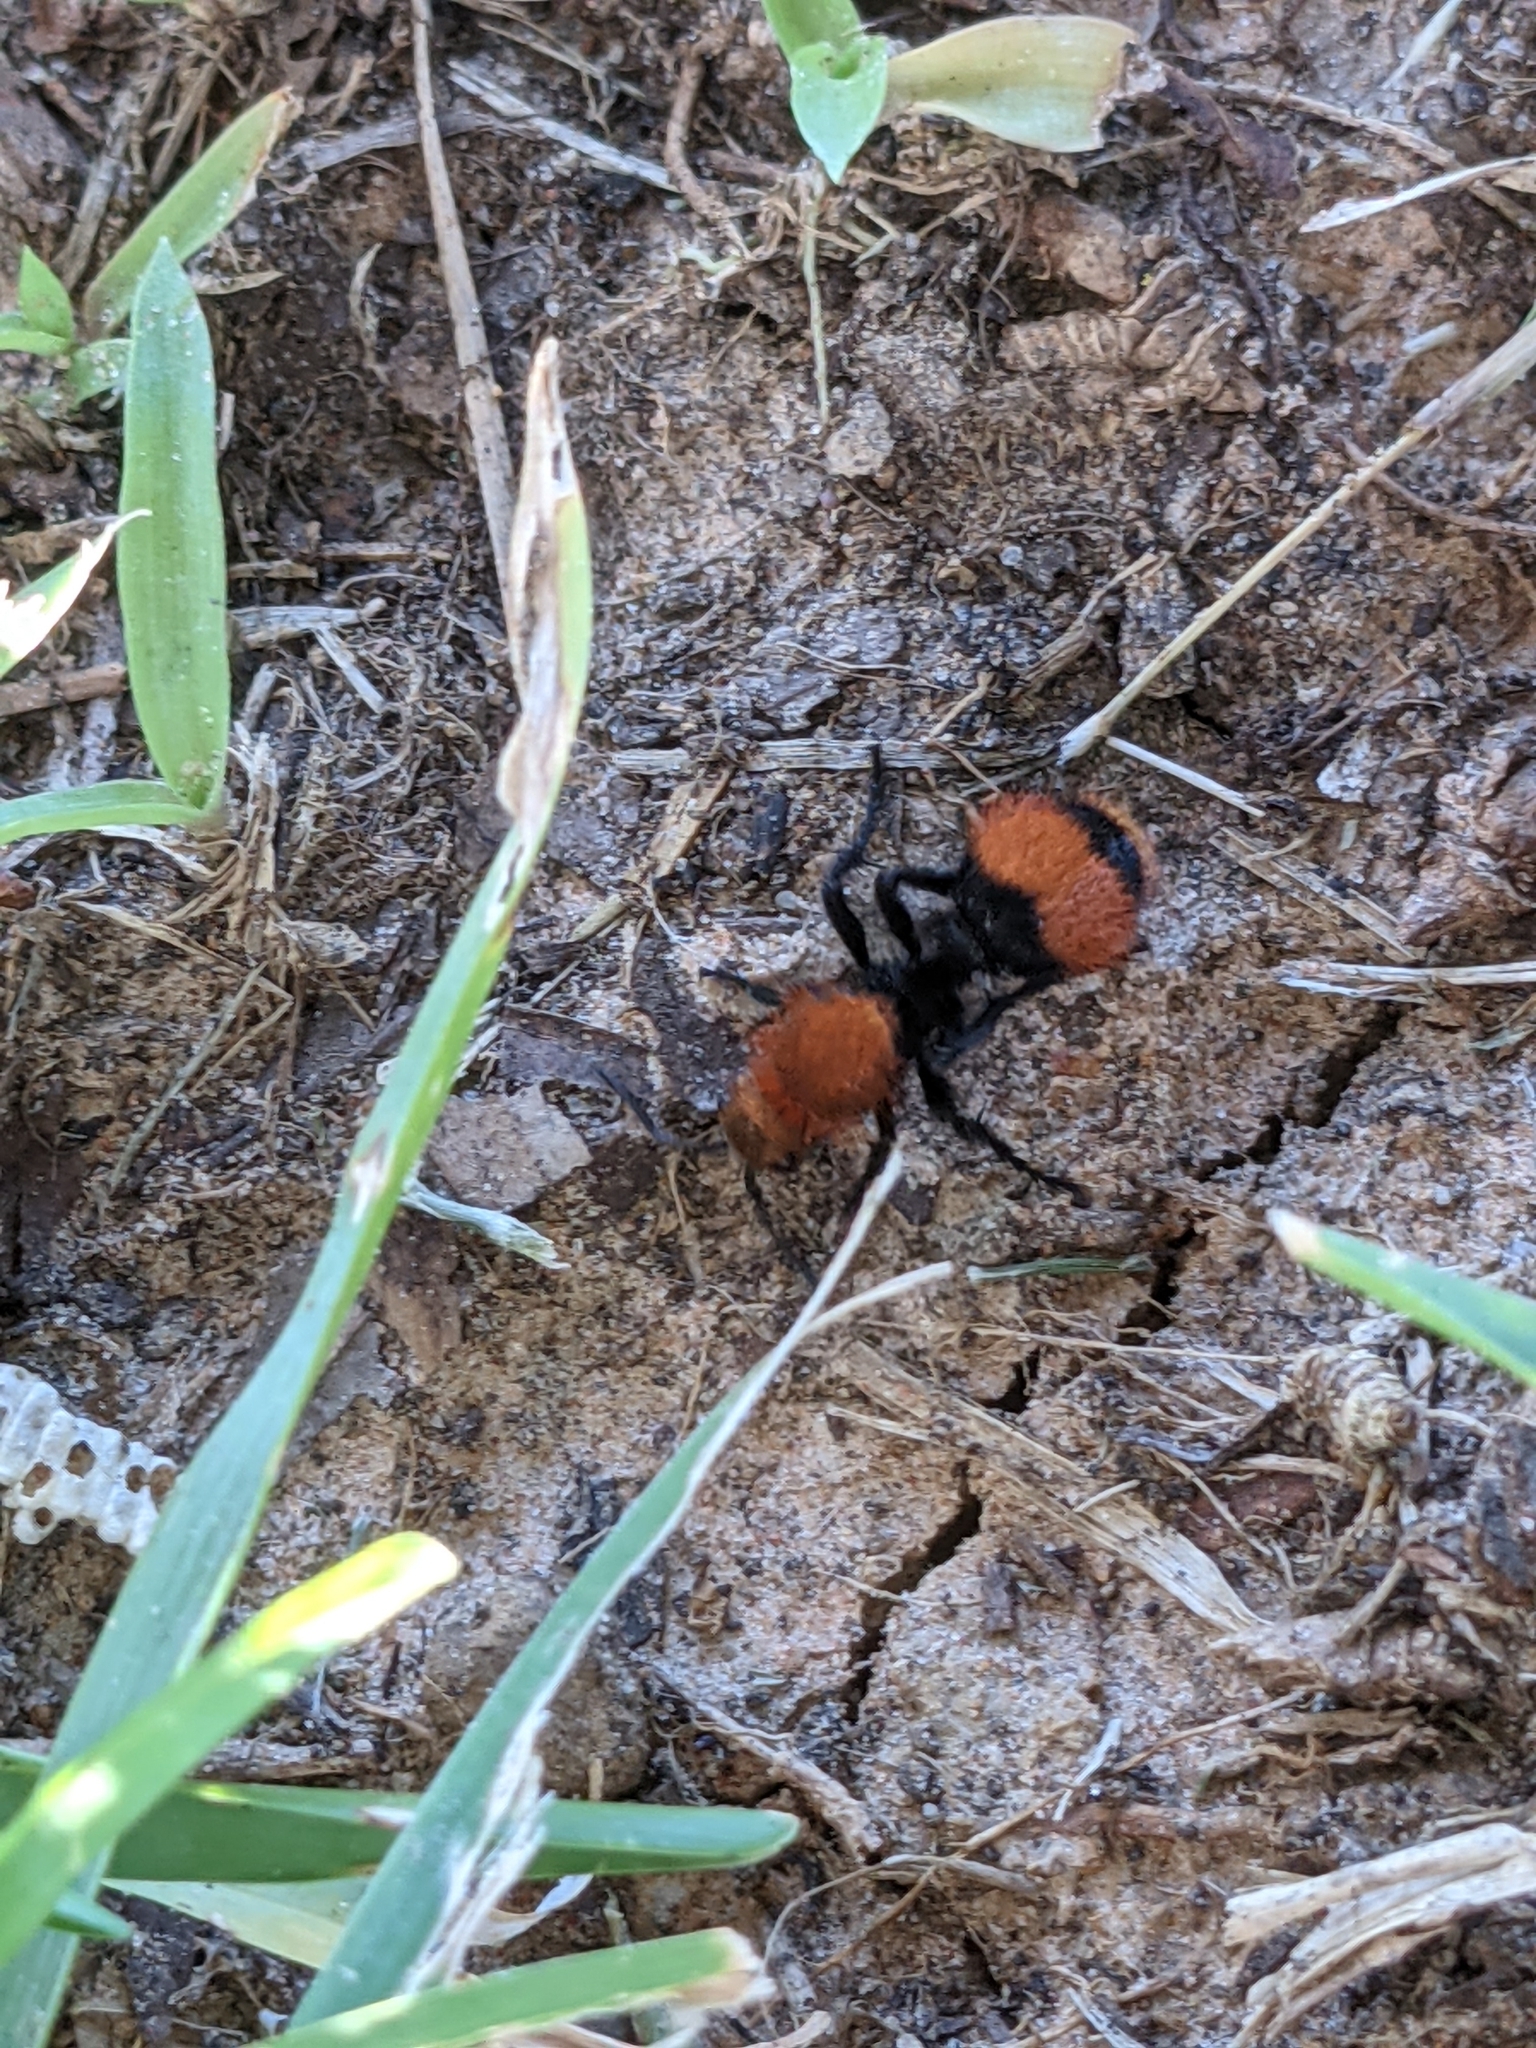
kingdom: Animalia
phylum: Arthropoda
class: Insecta
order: Hymenoptera
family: Mutillidae
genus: Dasymutilla
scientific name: Dasymutilla occidentalis
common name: Common eastern velvet ant
